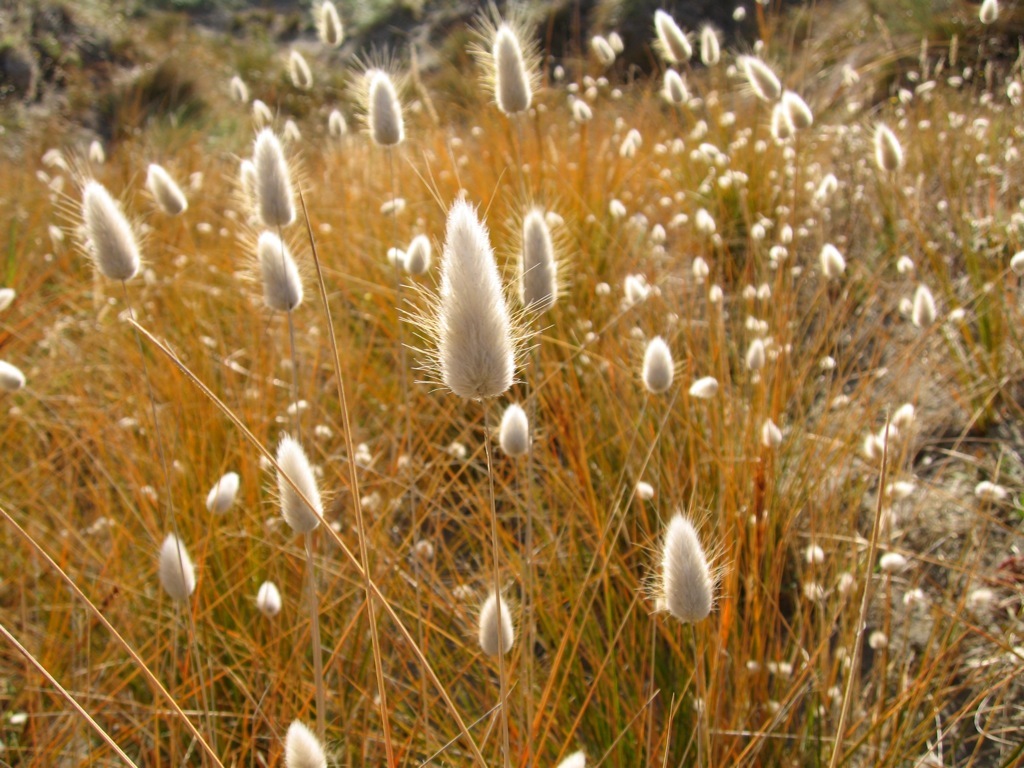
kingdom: Plantae
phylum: Tracheophyta
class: Liliopsida
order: Poales
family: Poaceae
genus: Lagurus
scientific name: Lagurus ovatus
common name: Hare's-tail
